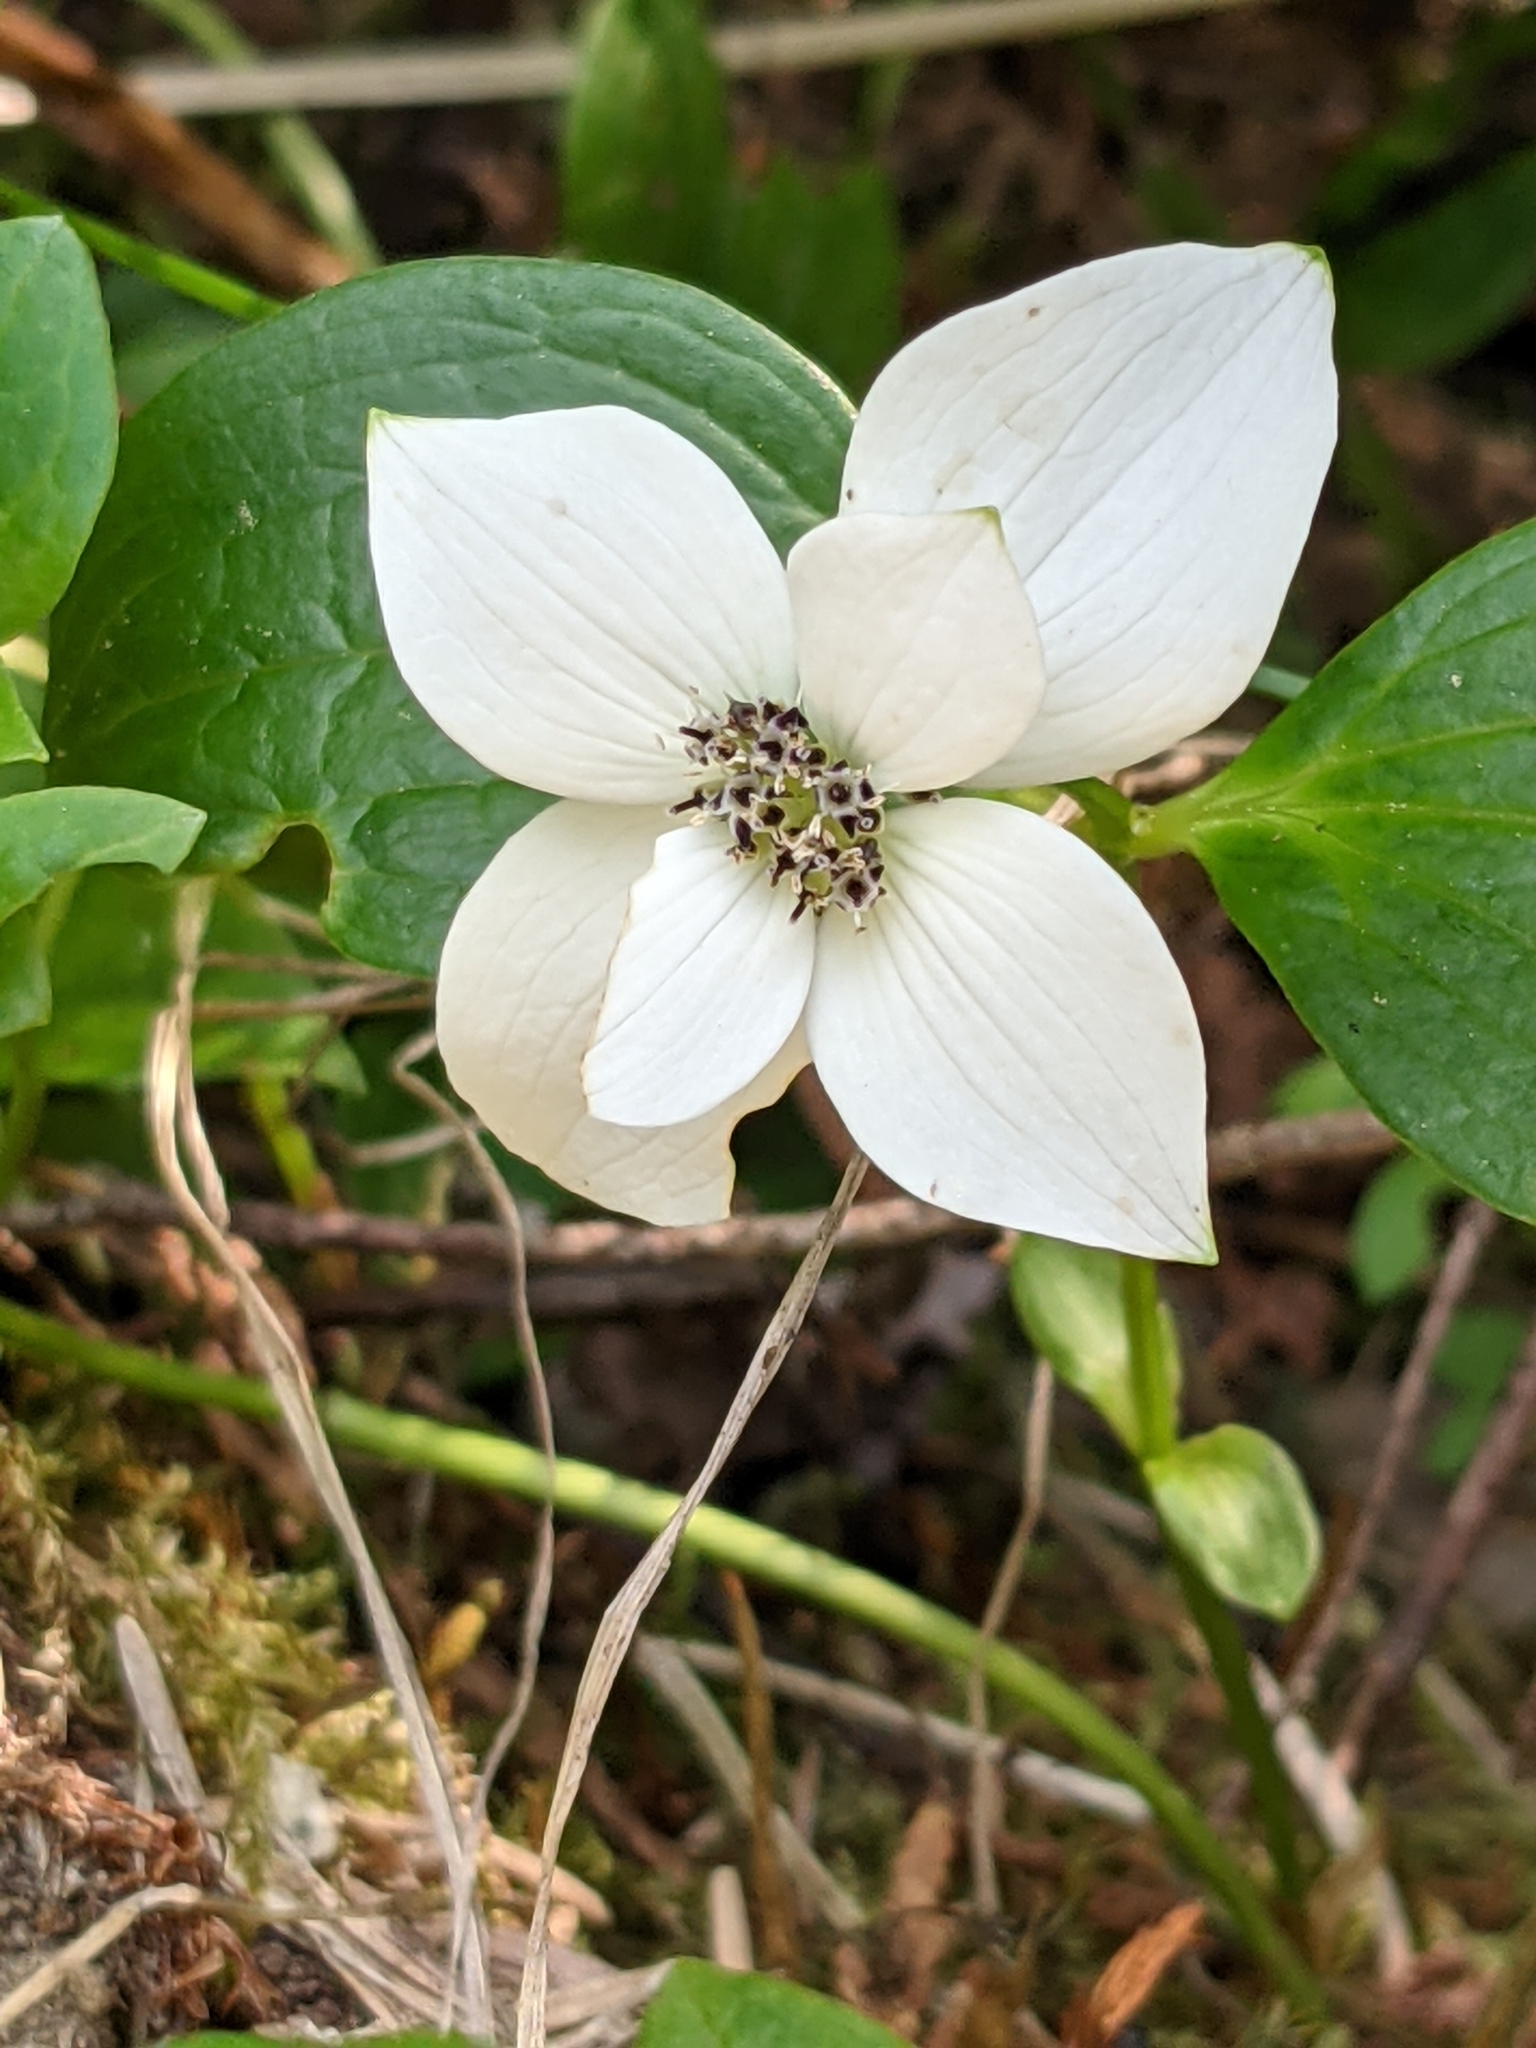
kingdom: Plantae
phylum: Tracheophyta
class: Magnoliopsida
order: Cornales
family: Cornaceae
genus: Cornus
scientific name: Cornus unalaschkensis
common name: Alaska bunchberry
